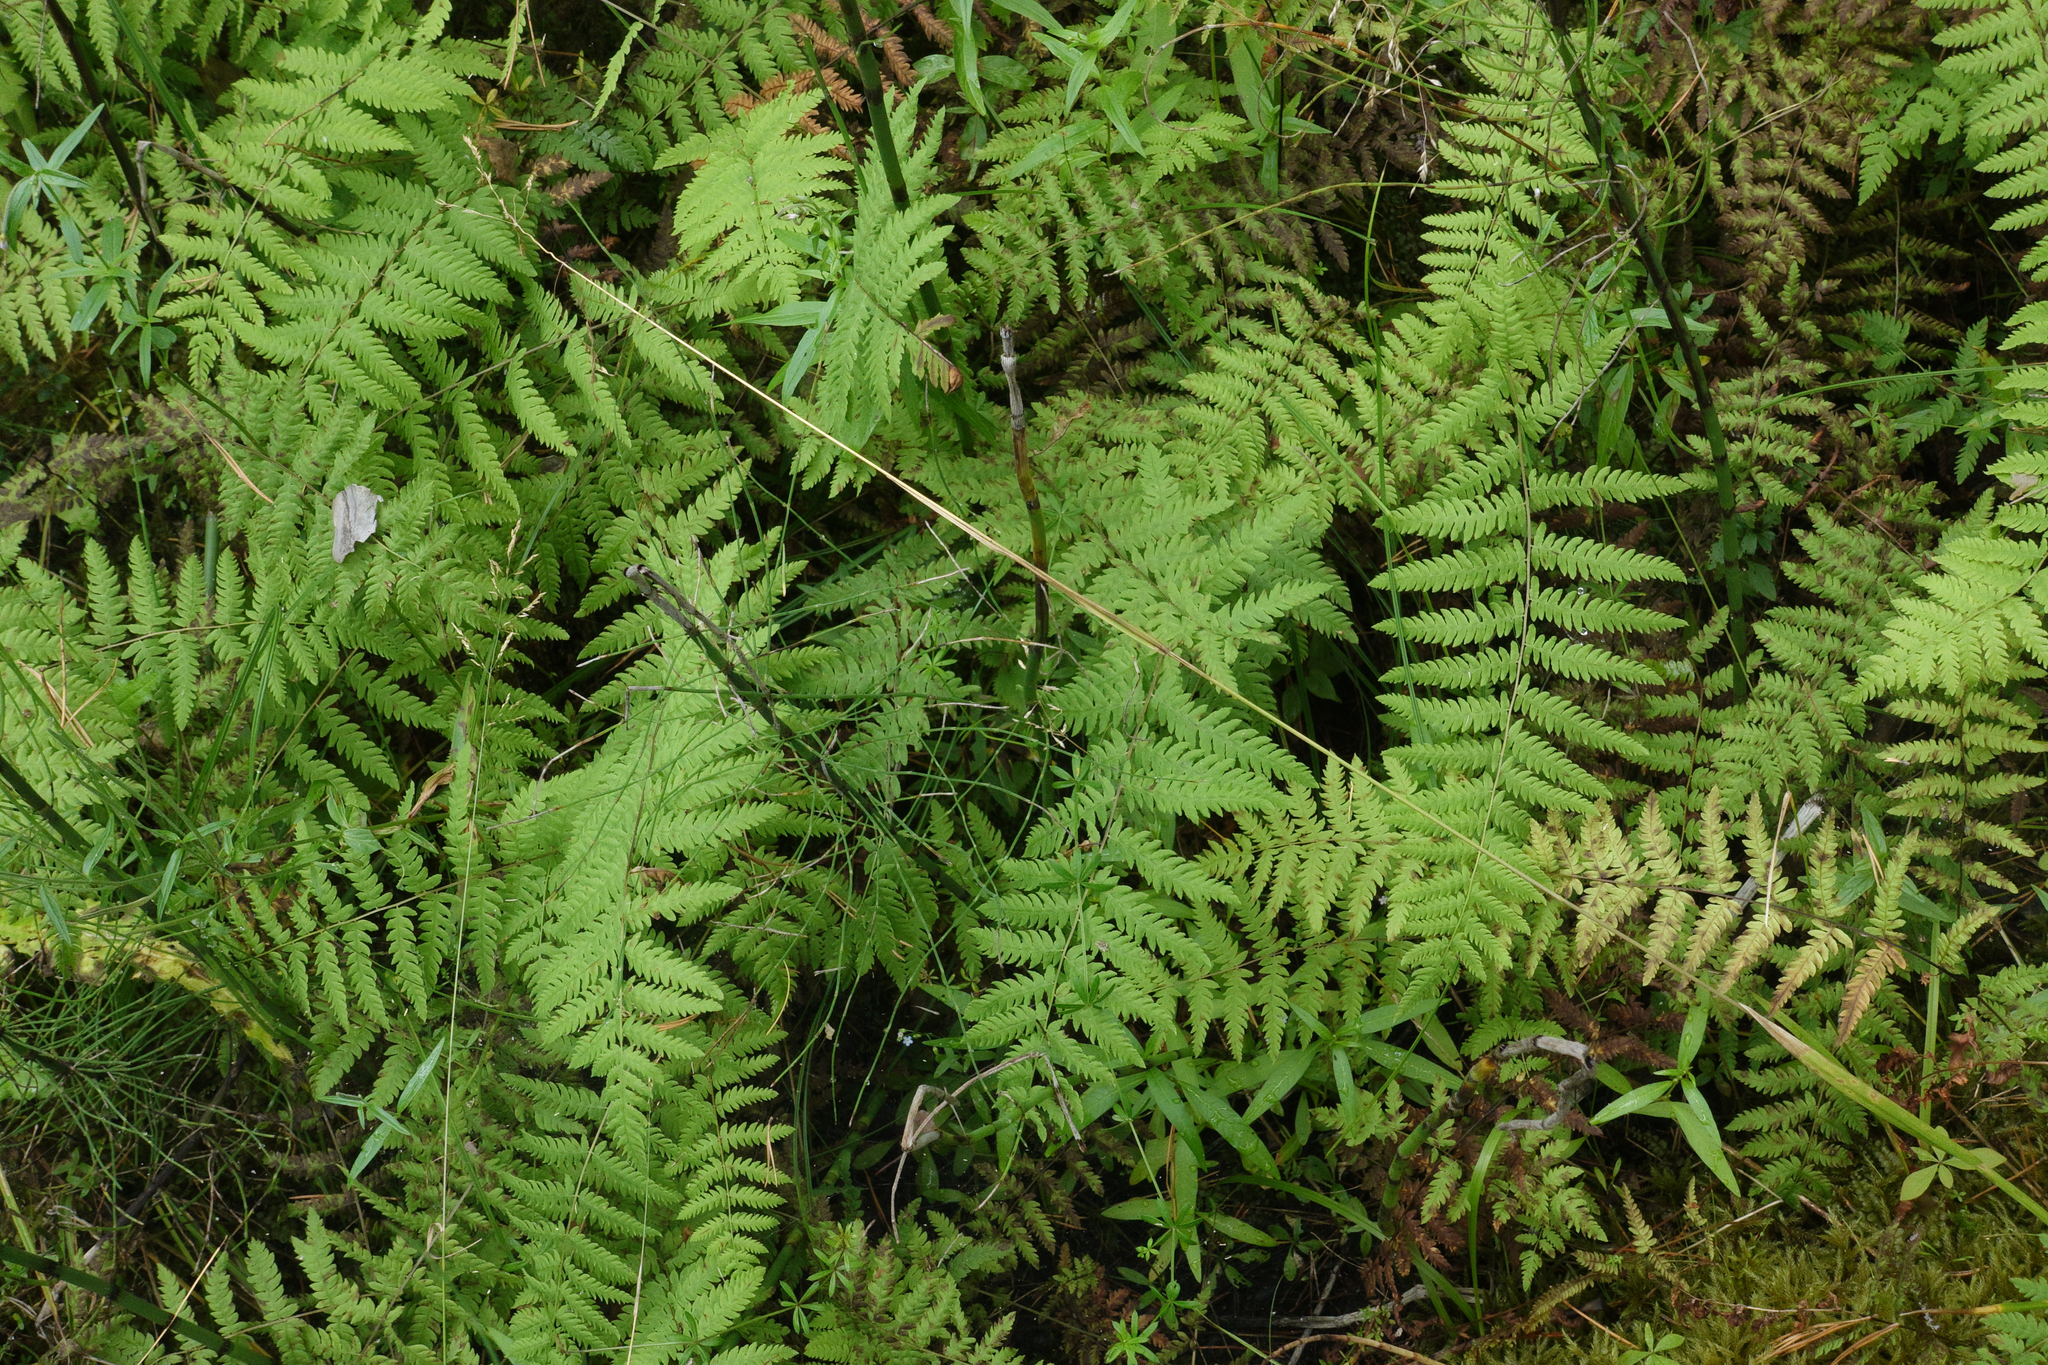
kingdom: Plantae
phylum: Tracheophyta
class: Polypodiopsida
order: Polypodiales
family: Thelypteridaceae
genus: Thelypteris
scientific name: Thelypteris palustris
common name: Marsh fern
